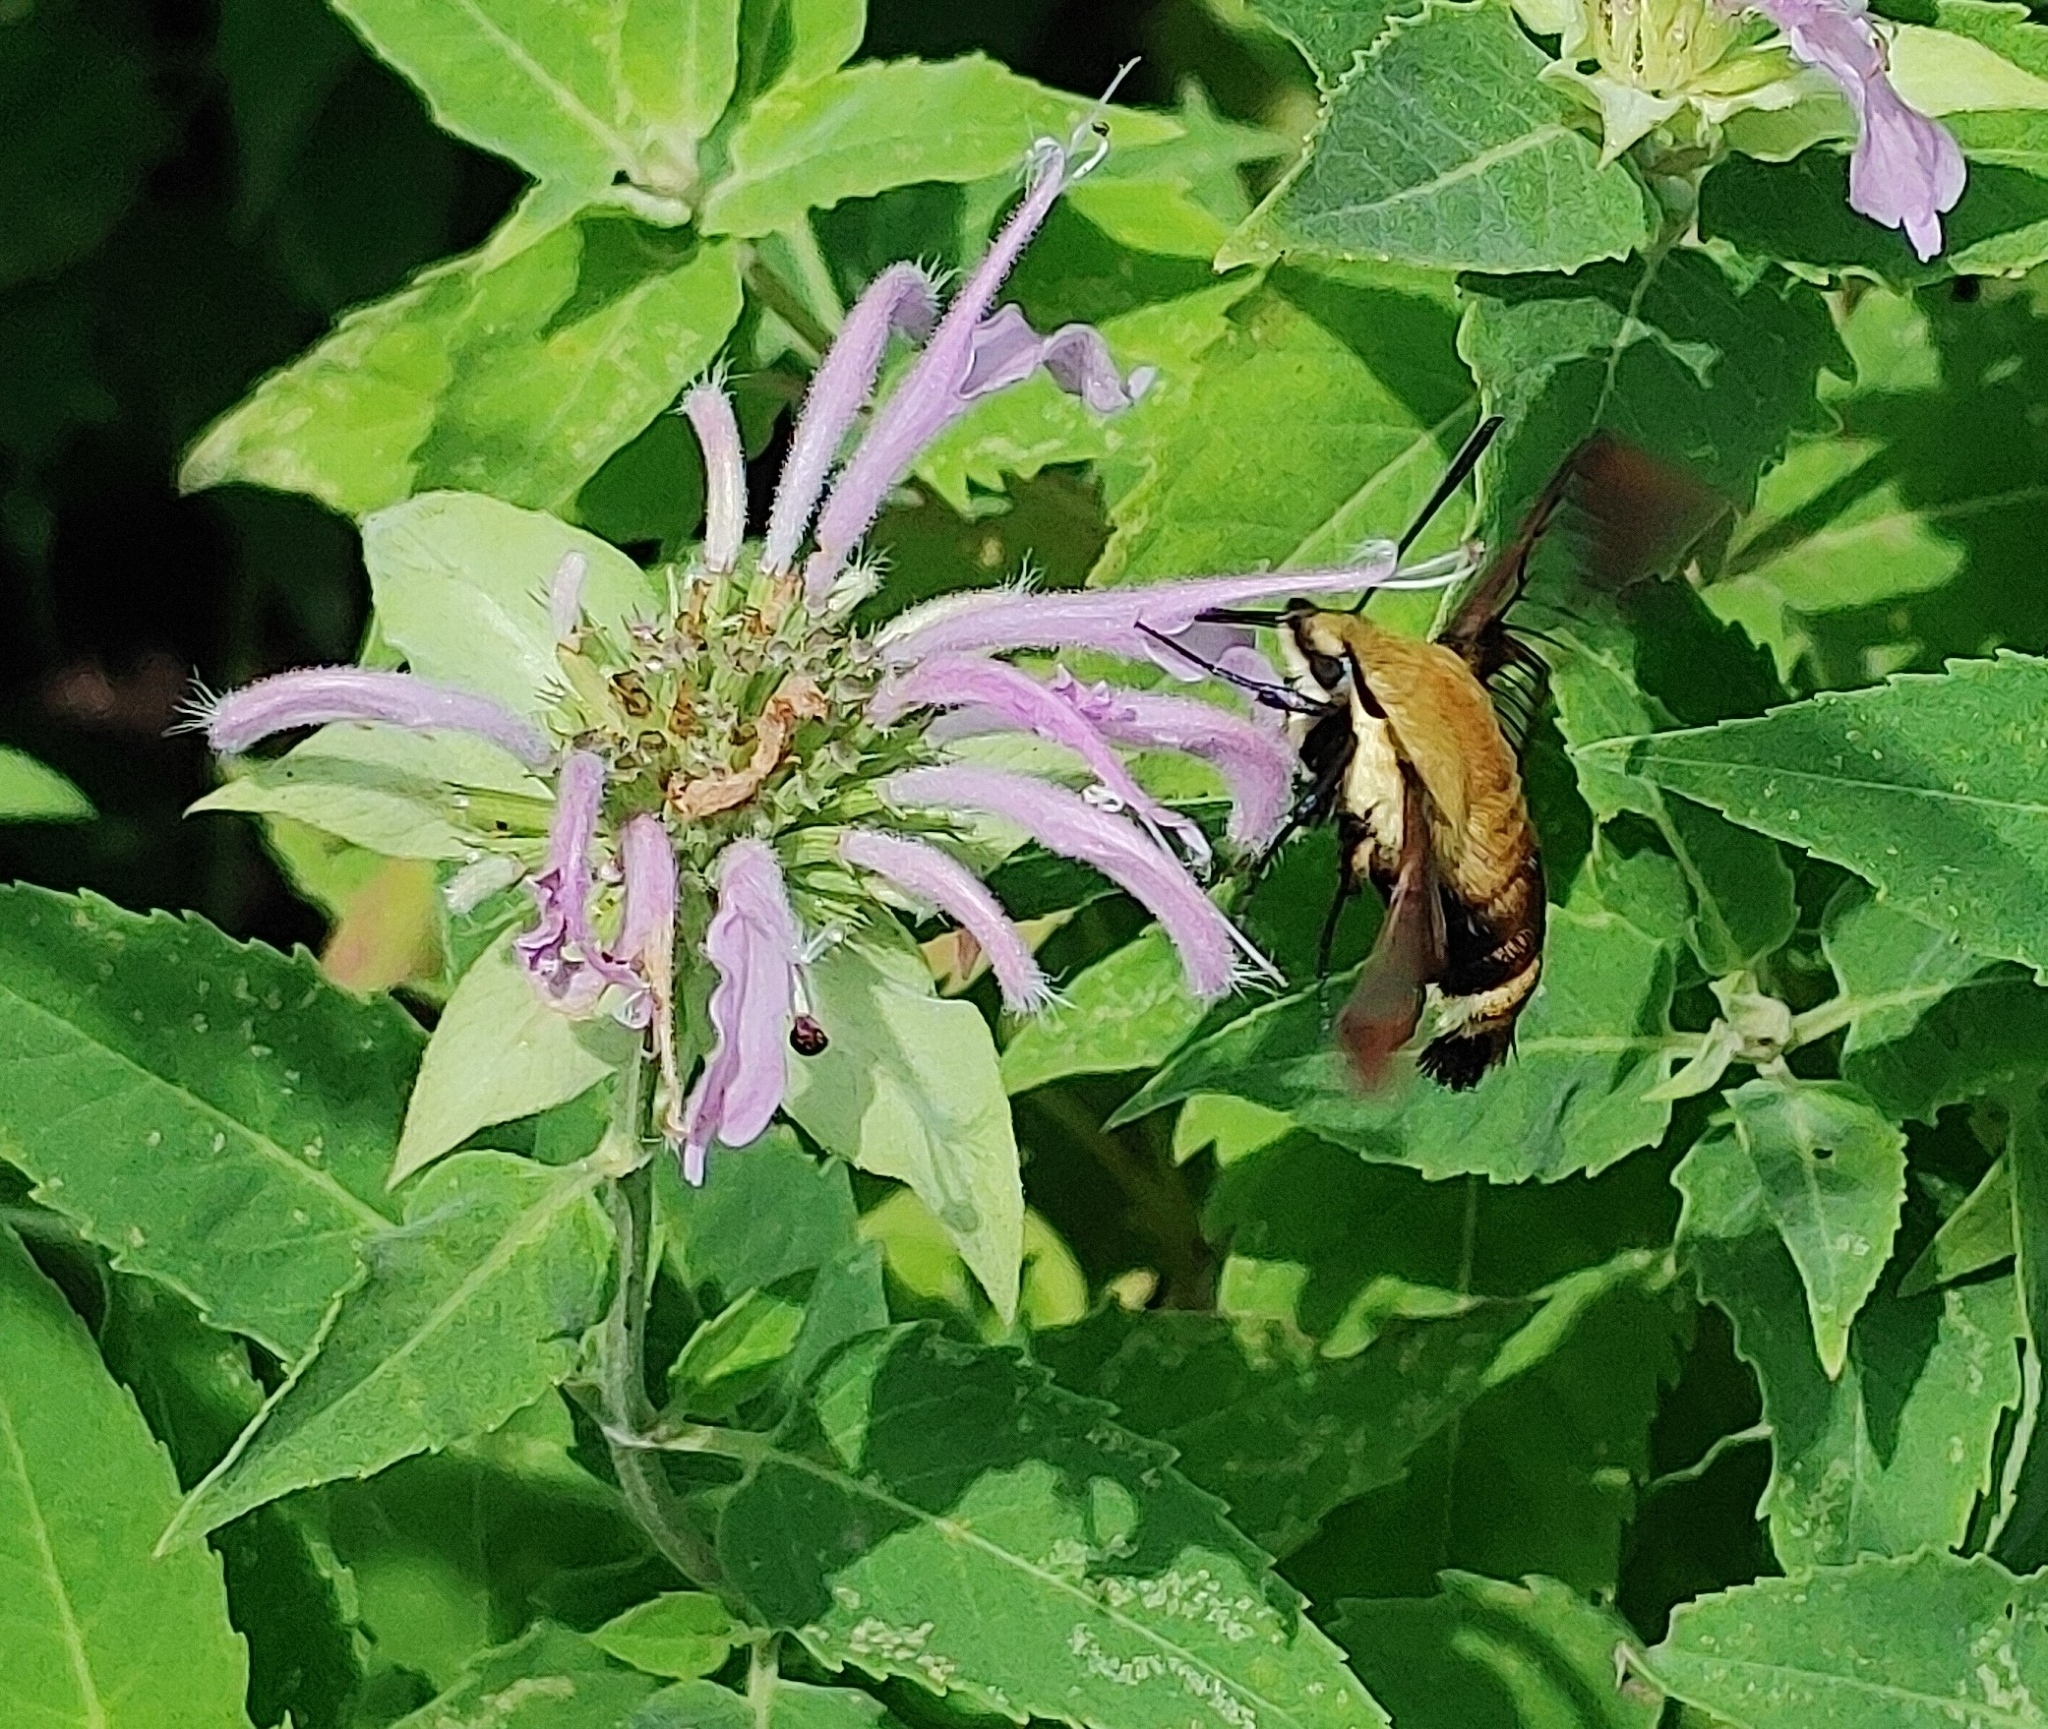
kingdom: Animalia
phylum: Arthropoda
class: Insecta
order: Lepidoptera
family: Sphingidae
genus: Hemaris
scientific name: Hemaris diffinis
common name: Bumblebee moth
